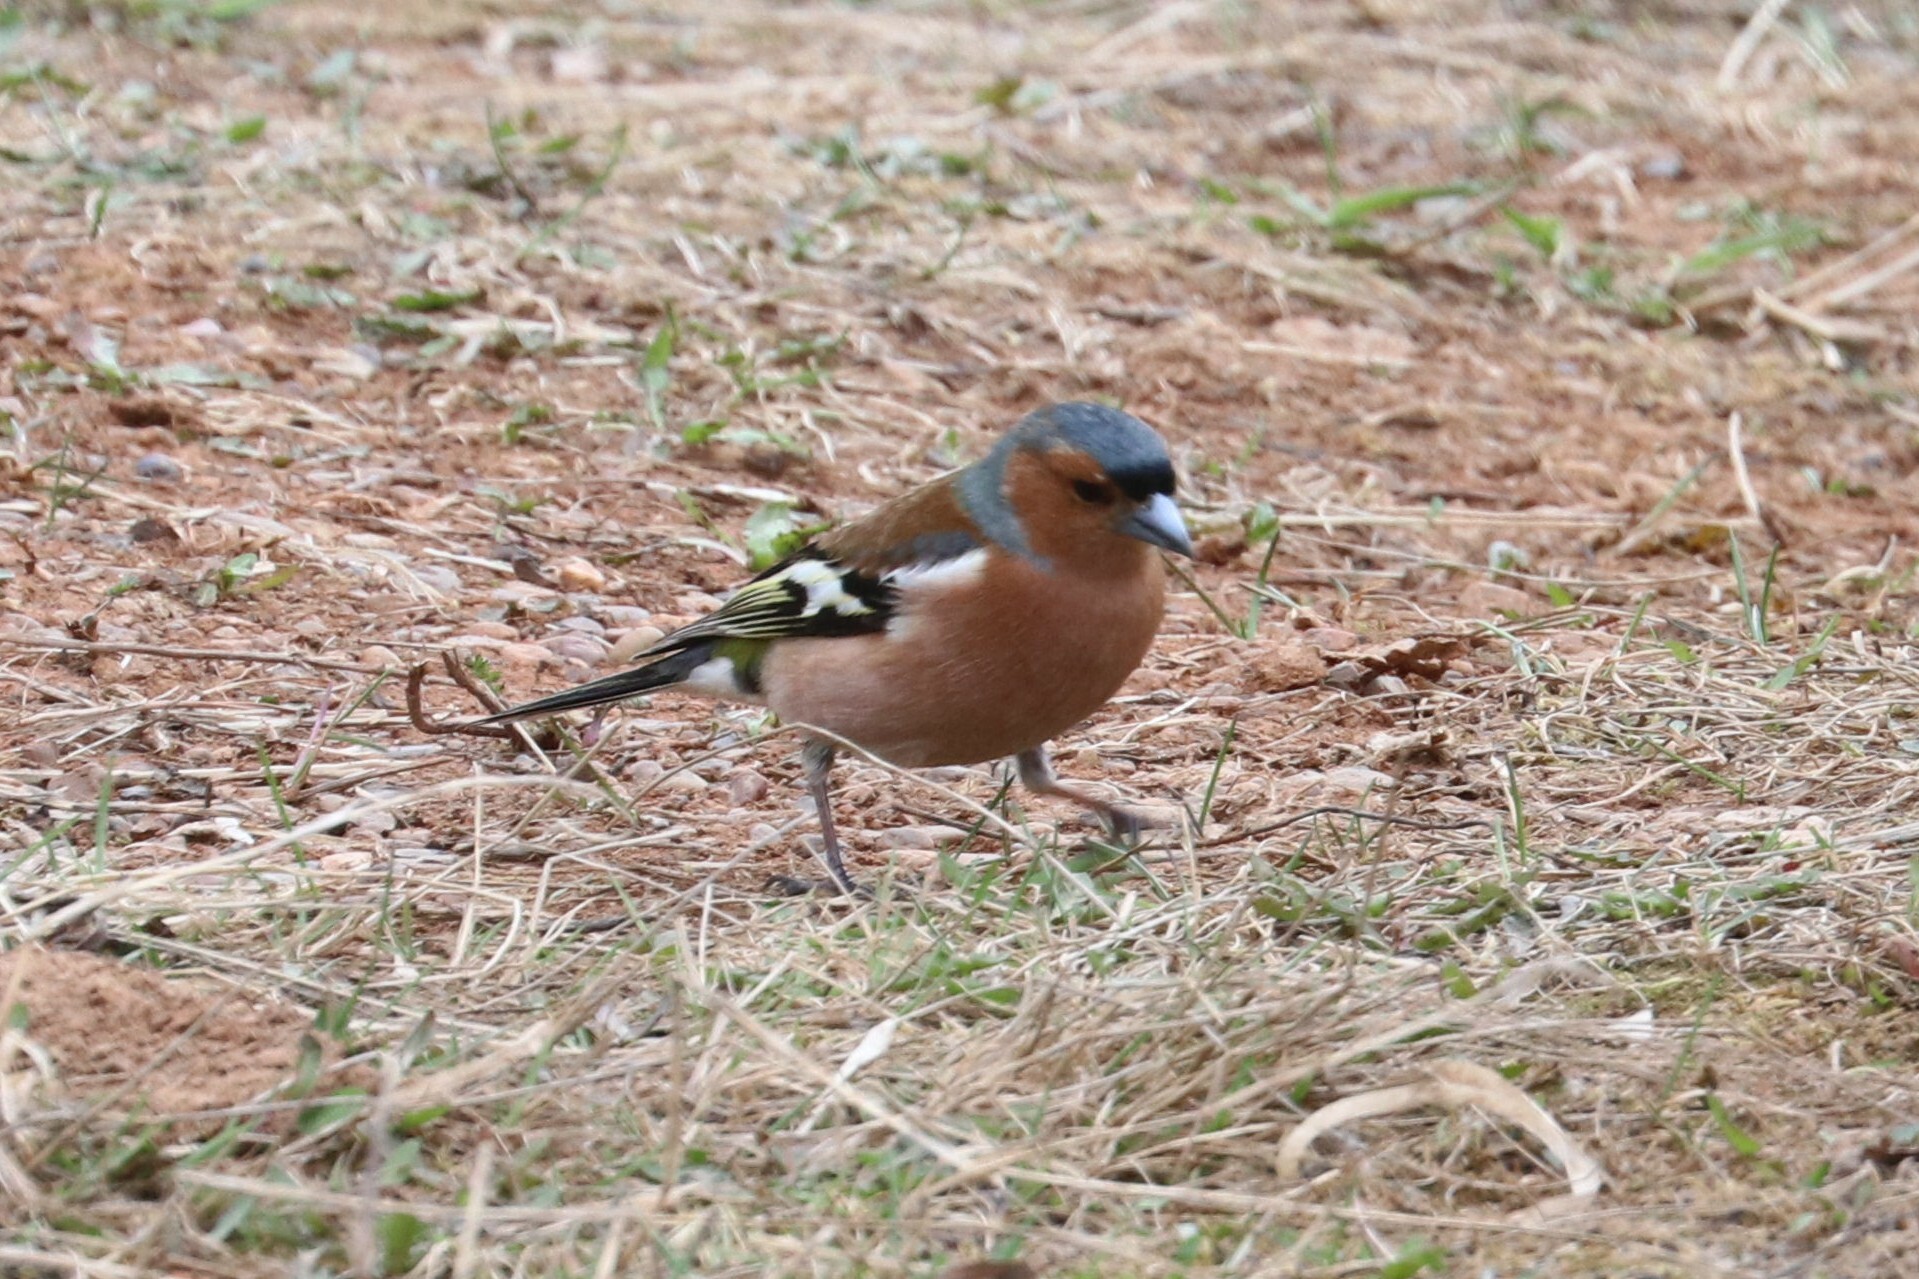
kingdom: Animalia
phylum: Chordata
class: Aves
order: Passeriformes
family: Fringillidae
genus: Fringilla
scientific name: Fringilla coelebs
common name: Common chaffinch
